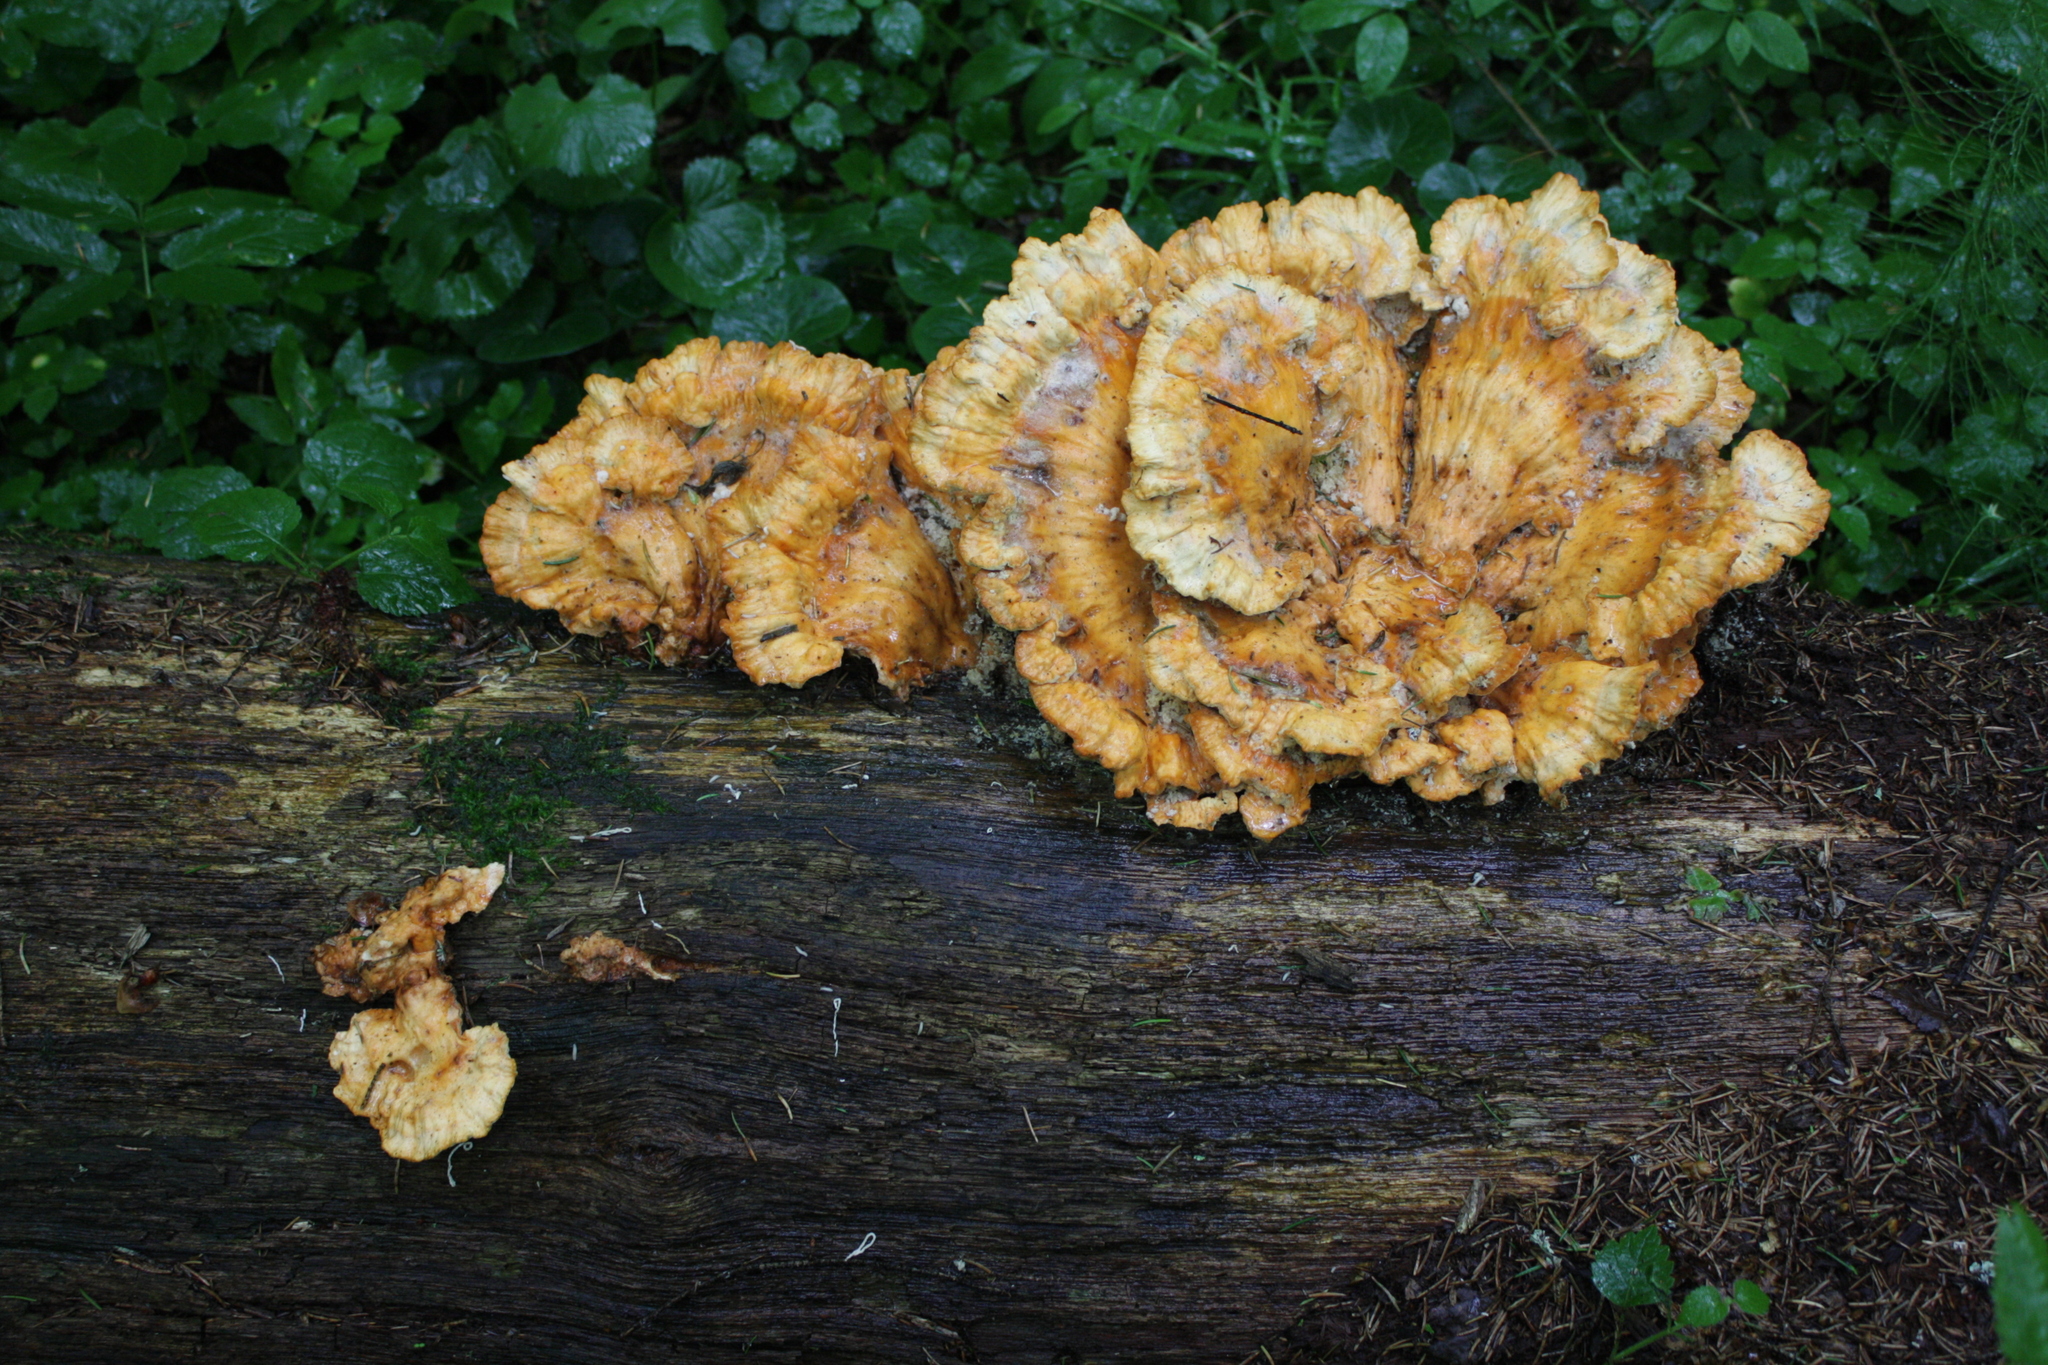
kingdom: Fungi
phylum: Basidiomycota
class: Agaricomycetes
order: Polyporales
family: Laetiporaceae
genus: Laetiporus
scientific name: Laetiporus sulphureus
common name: Chicken of the woods
